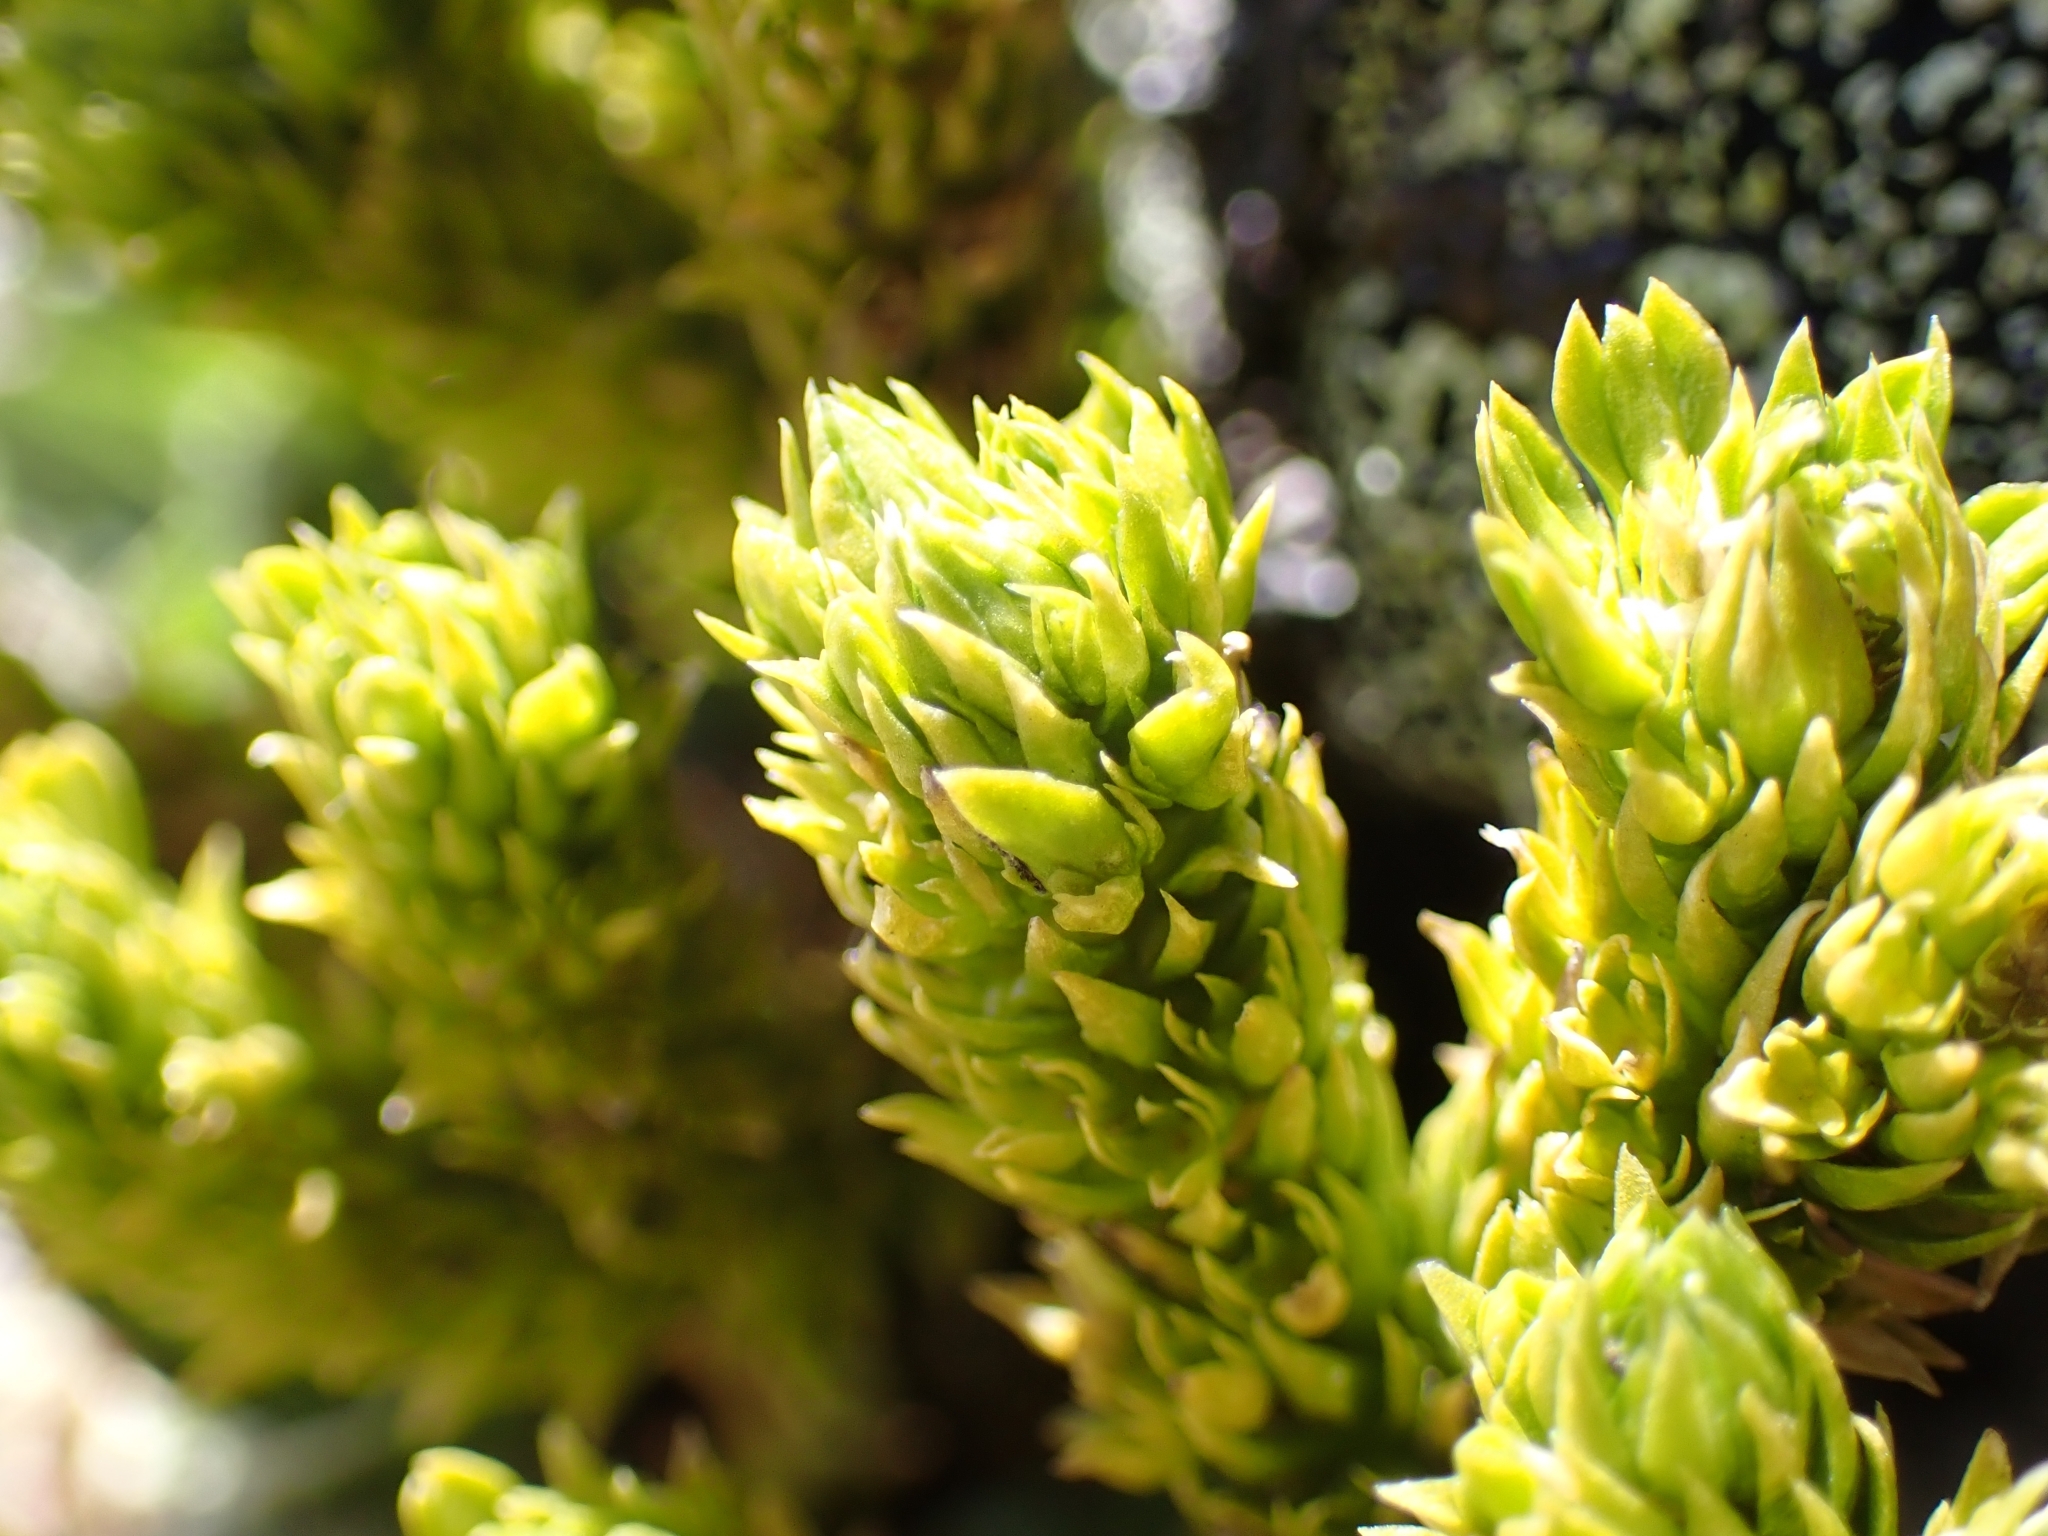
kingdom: Plantae
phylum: Tracheophyta
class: Lycopodiopsida
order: Lycopodiales
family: Lycopodiaceae
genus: Huperzia
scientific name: Huperzia selago
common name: Northern firmoss
